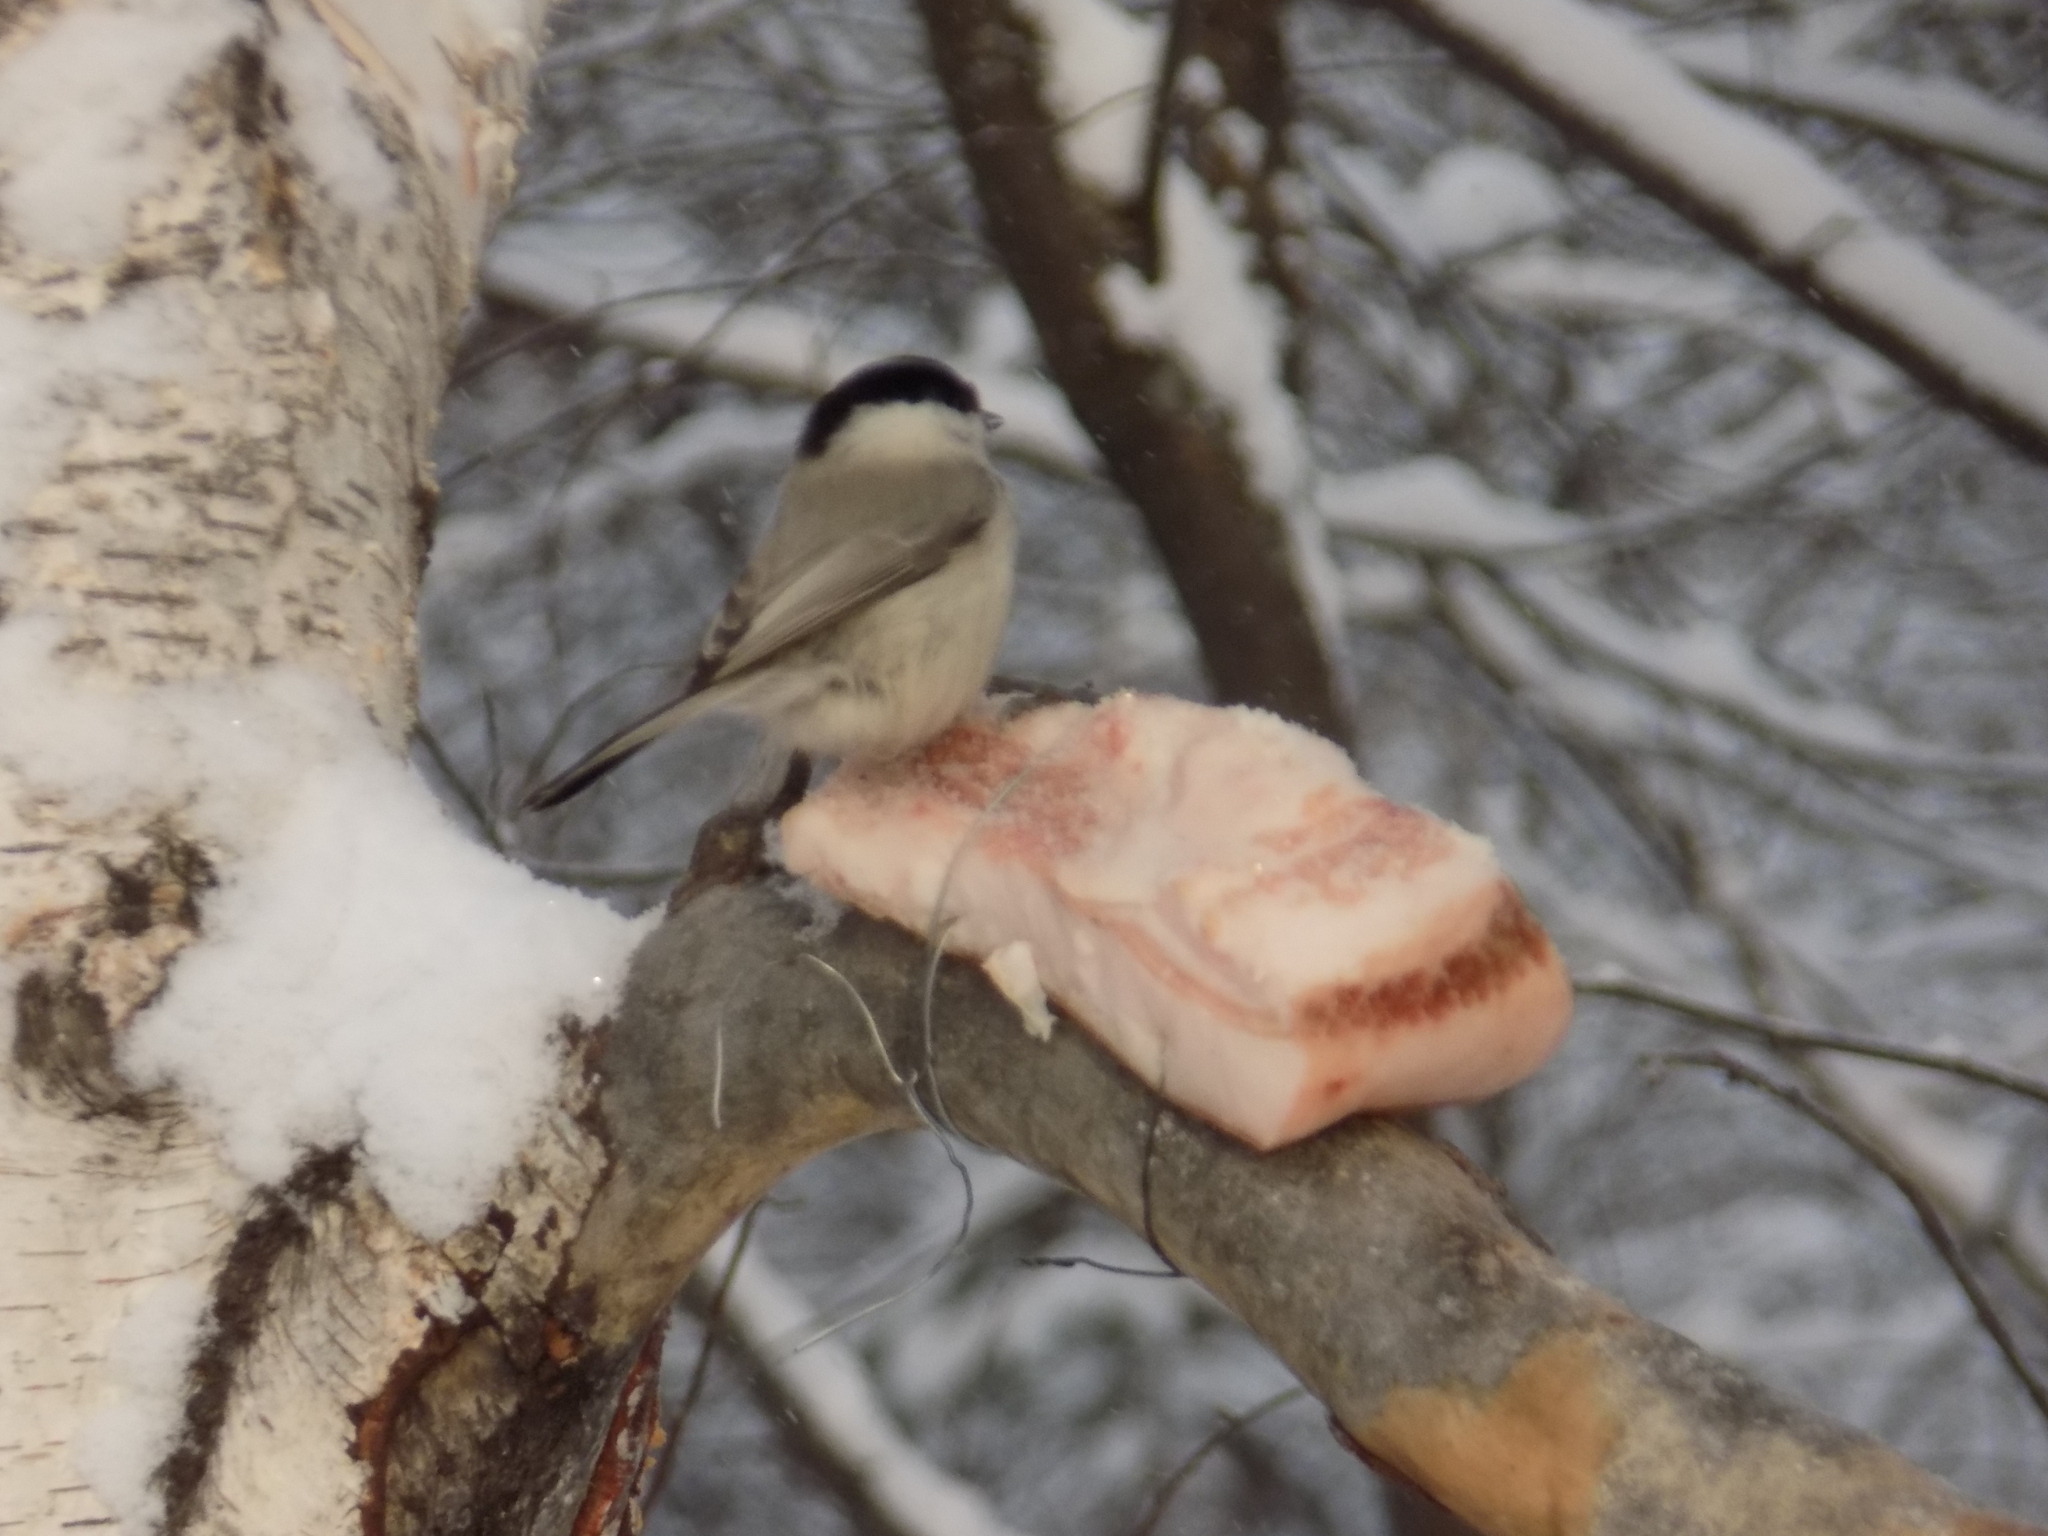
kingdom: Animalia
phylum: Chordata
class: Aves
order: Passeriformes
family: Paridae
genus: Poecile
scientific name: Poecile montanus
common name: Willow tit
